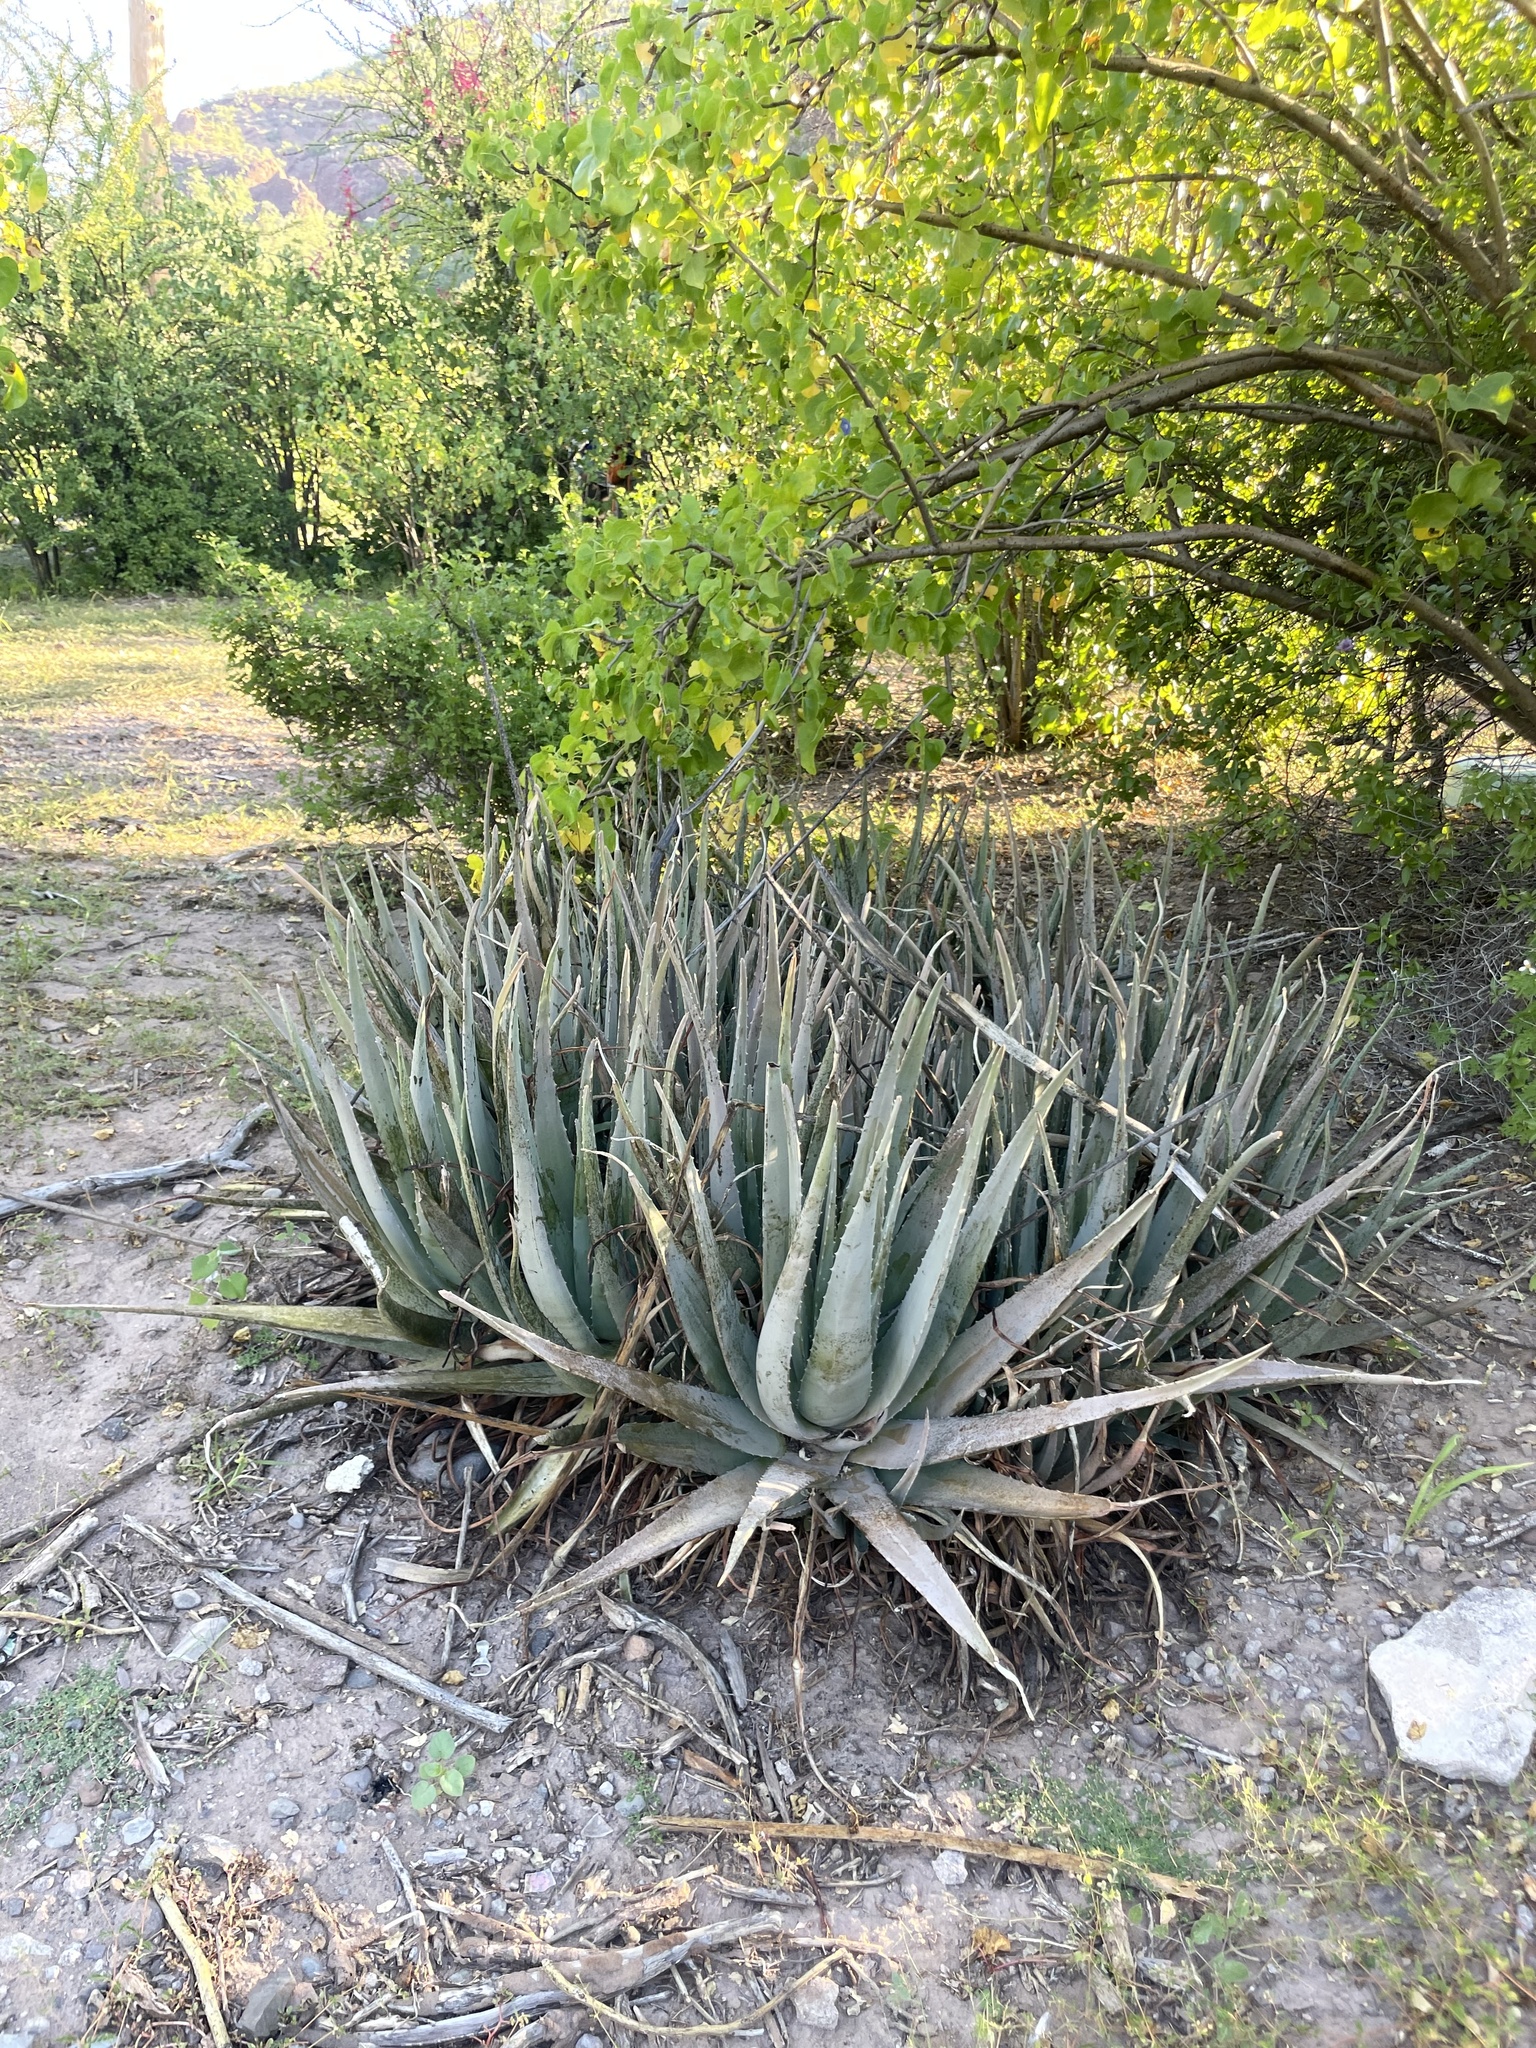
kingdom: Plantae
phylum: Tracheophyta
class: Liliopsida
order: Asparagales
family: Asphodelaceae
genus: Aloe
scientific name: Aloe vera
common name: Barbados aloe
